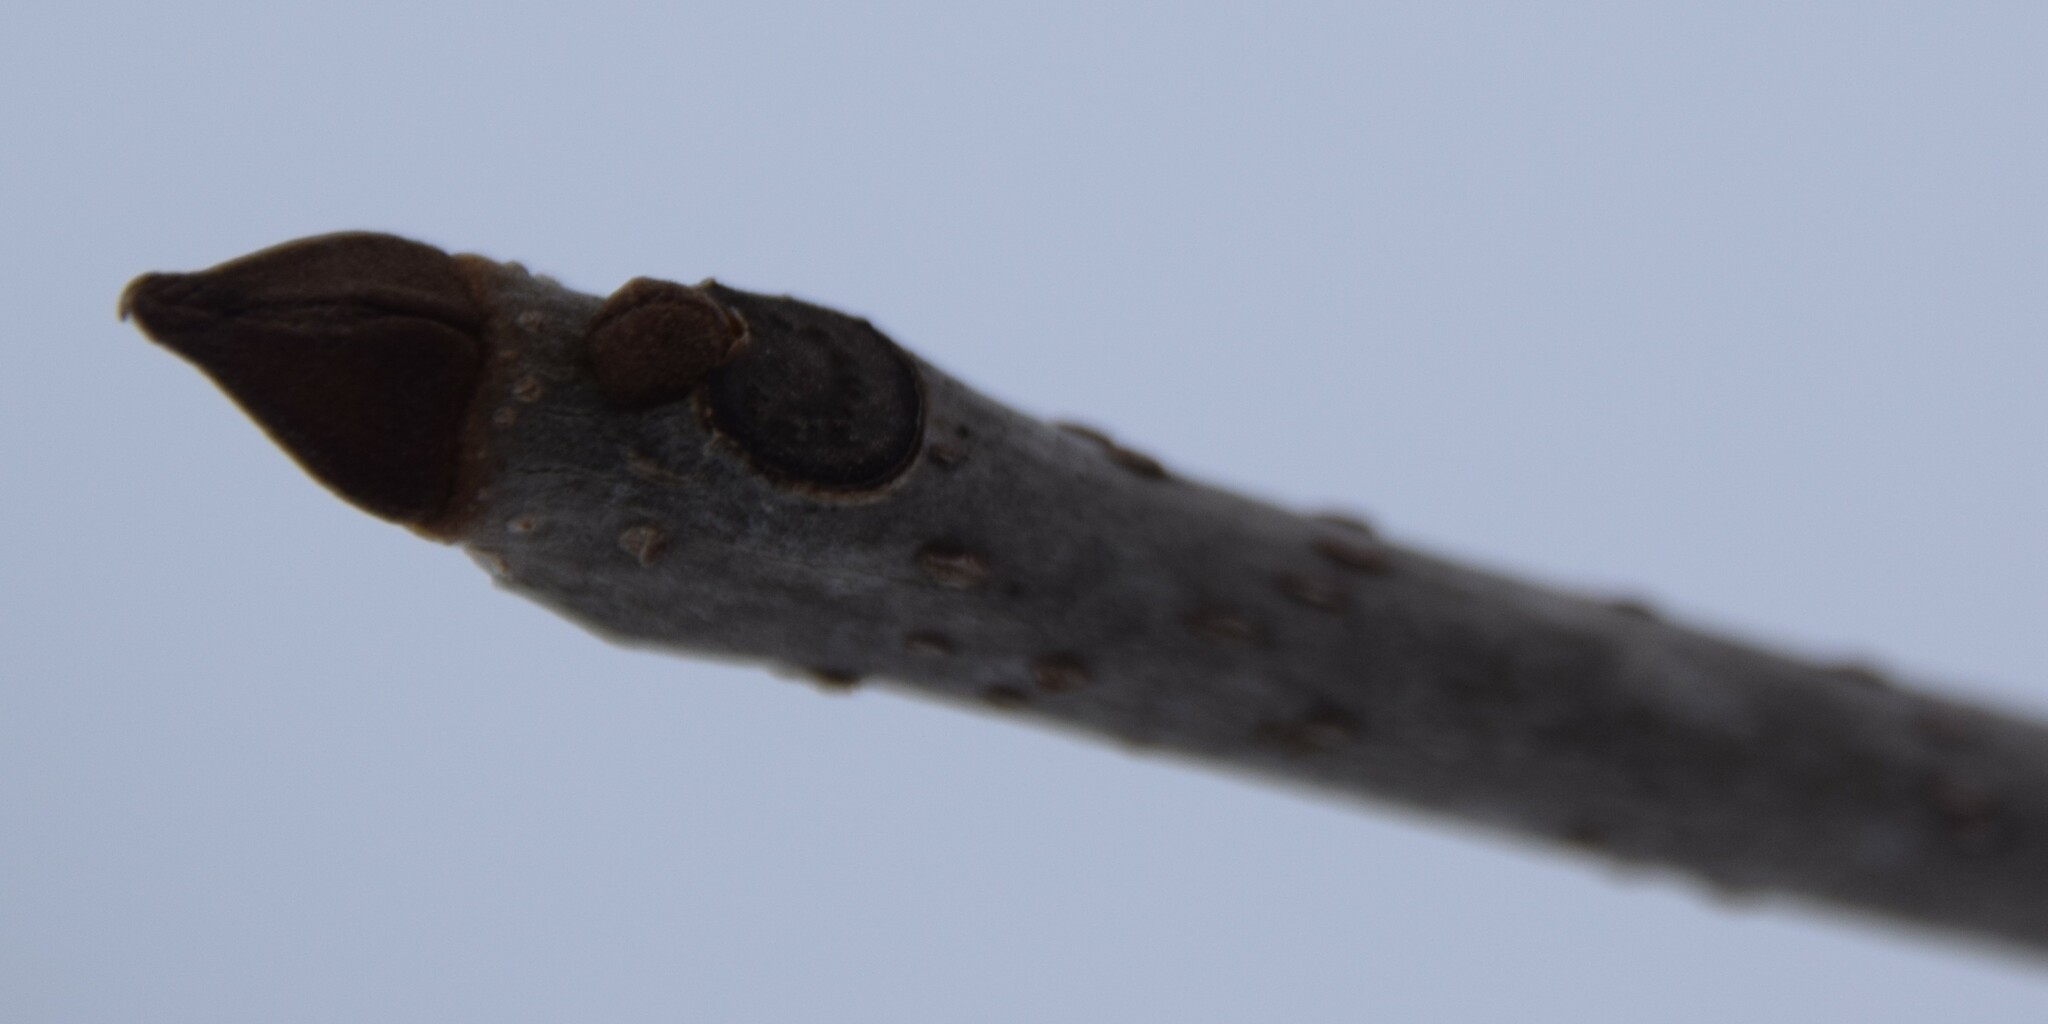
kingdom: Plantae
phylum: Tracheophyta
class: Magnoliopsida
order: Lamiales
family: Oleaceae
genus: Fraxinus
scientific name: Fraxinus nigra
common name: Black ash
